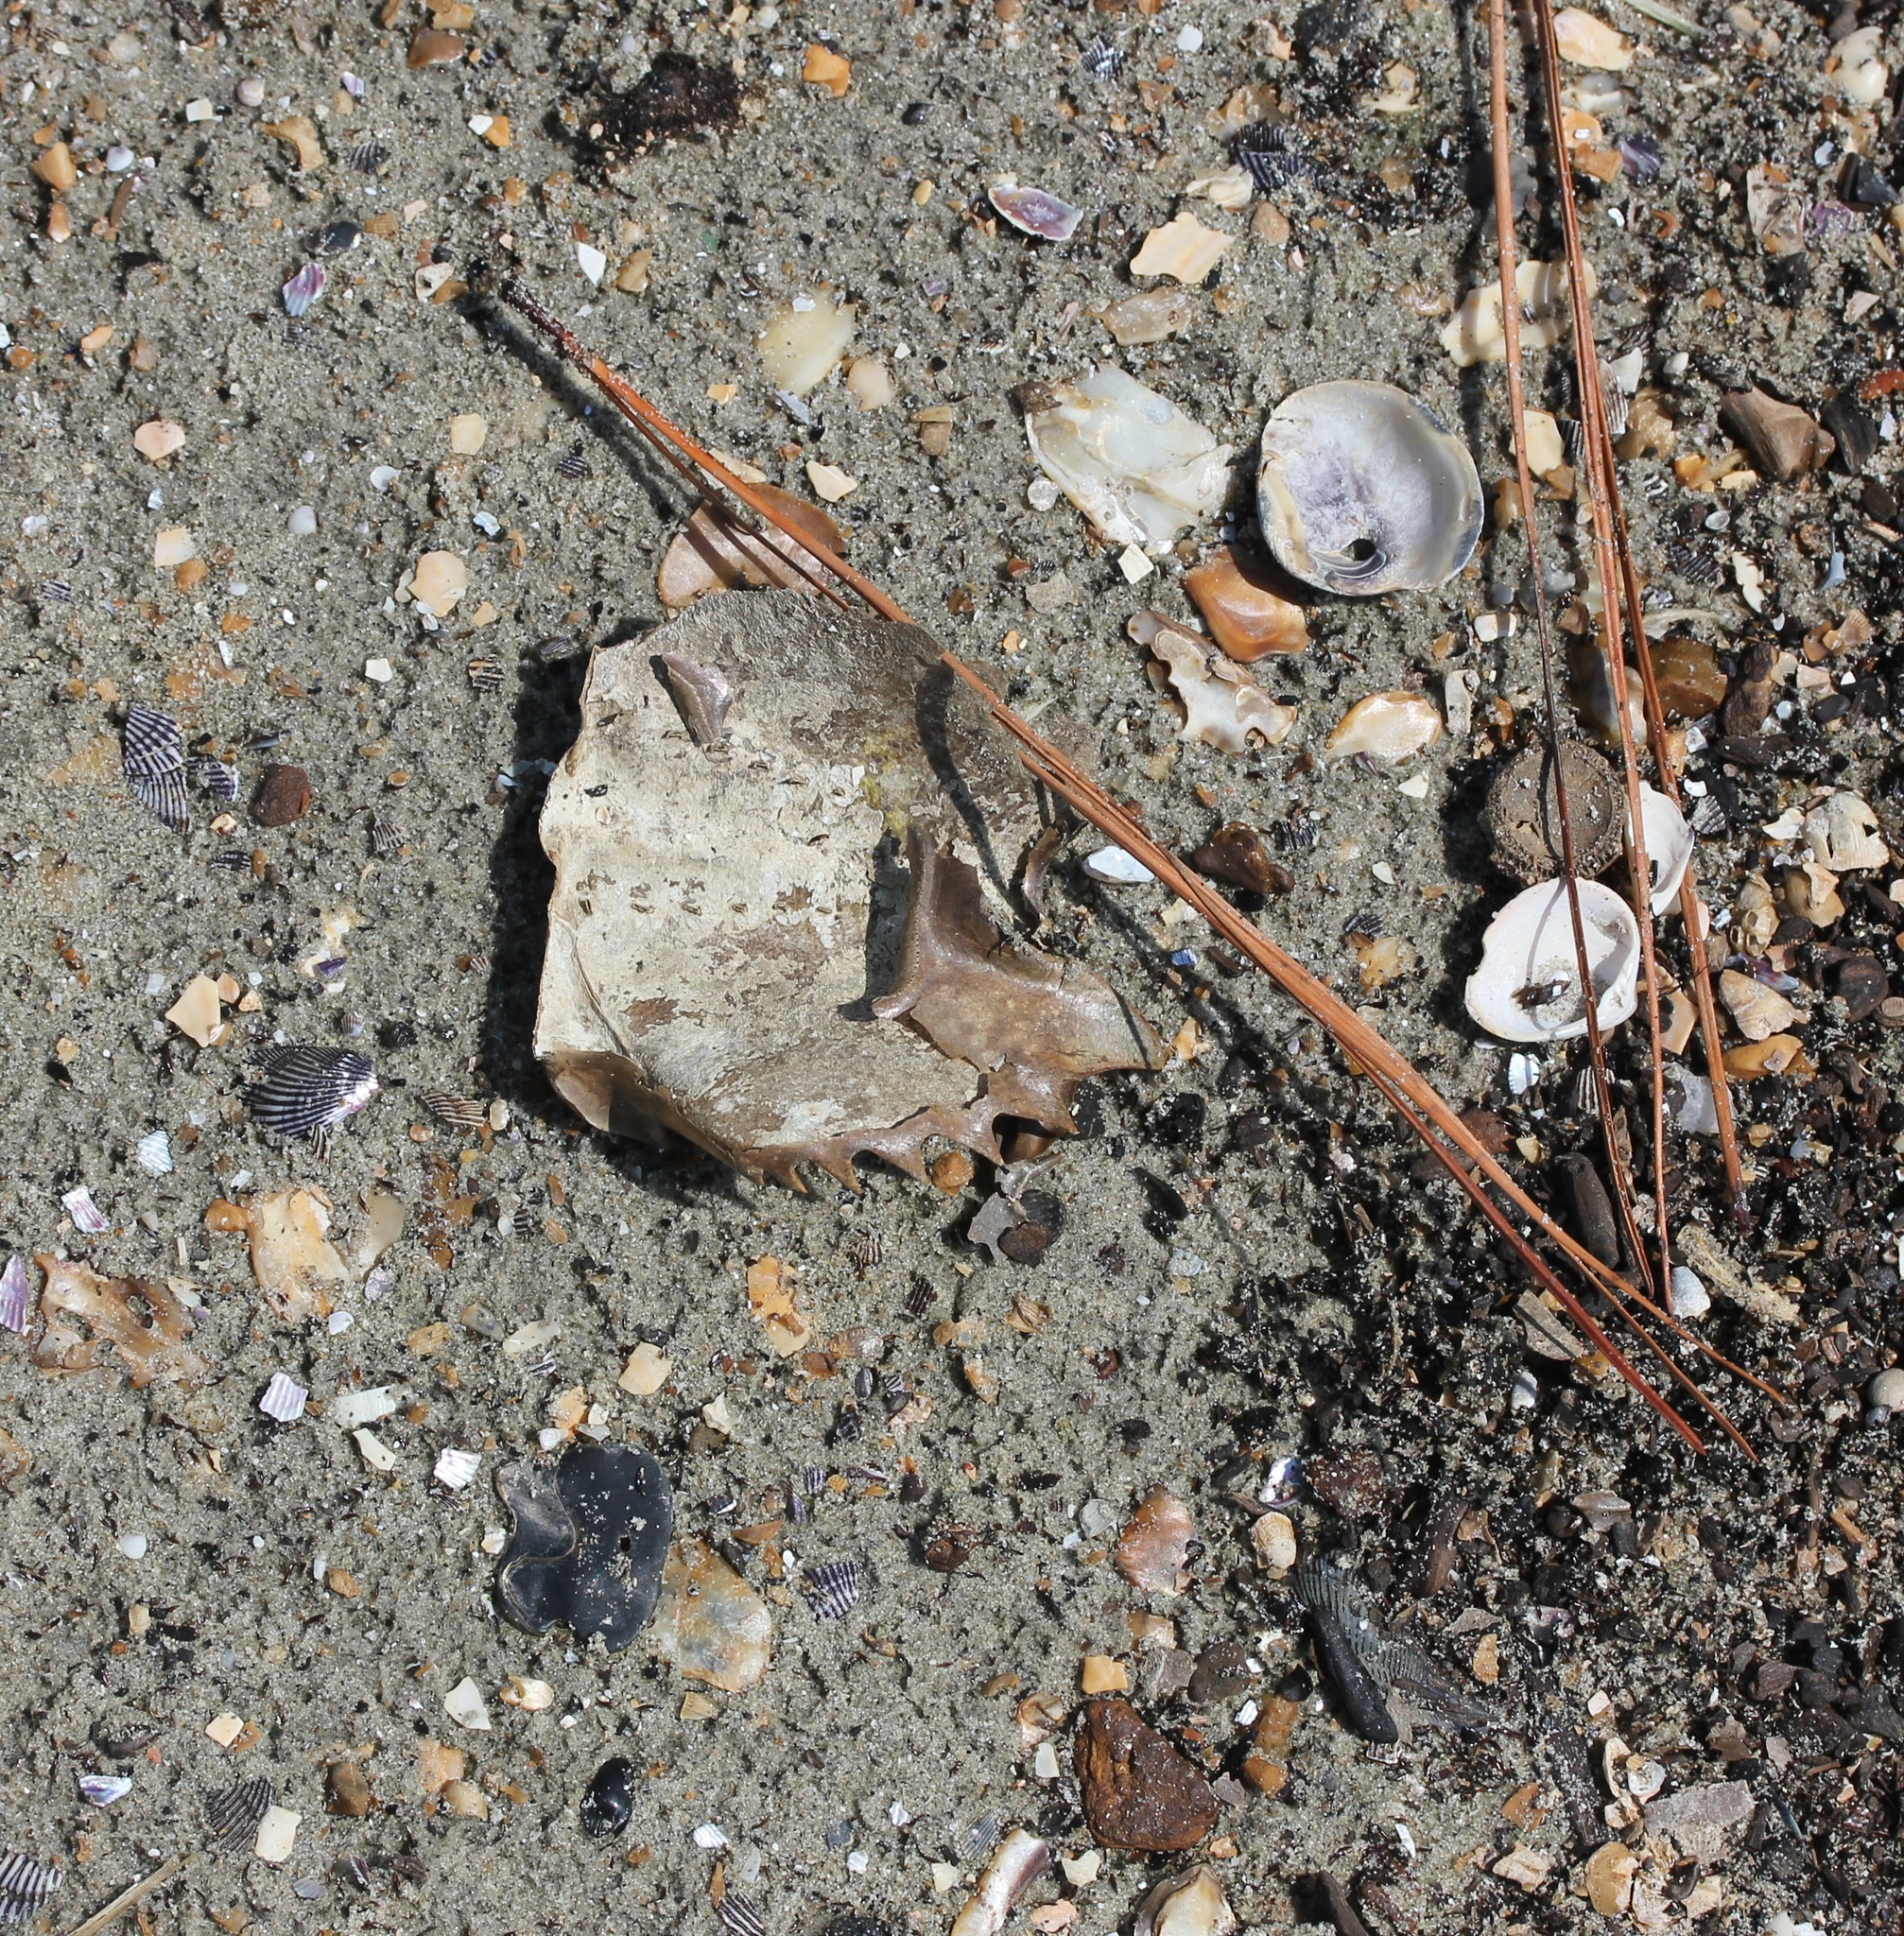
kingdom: Animalia
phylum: Arthropoda
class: Merostomata
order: Xiphosurida
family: Limulidae
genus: Limulus
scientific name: Limulus polyphemus
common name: Horseshoe crab
